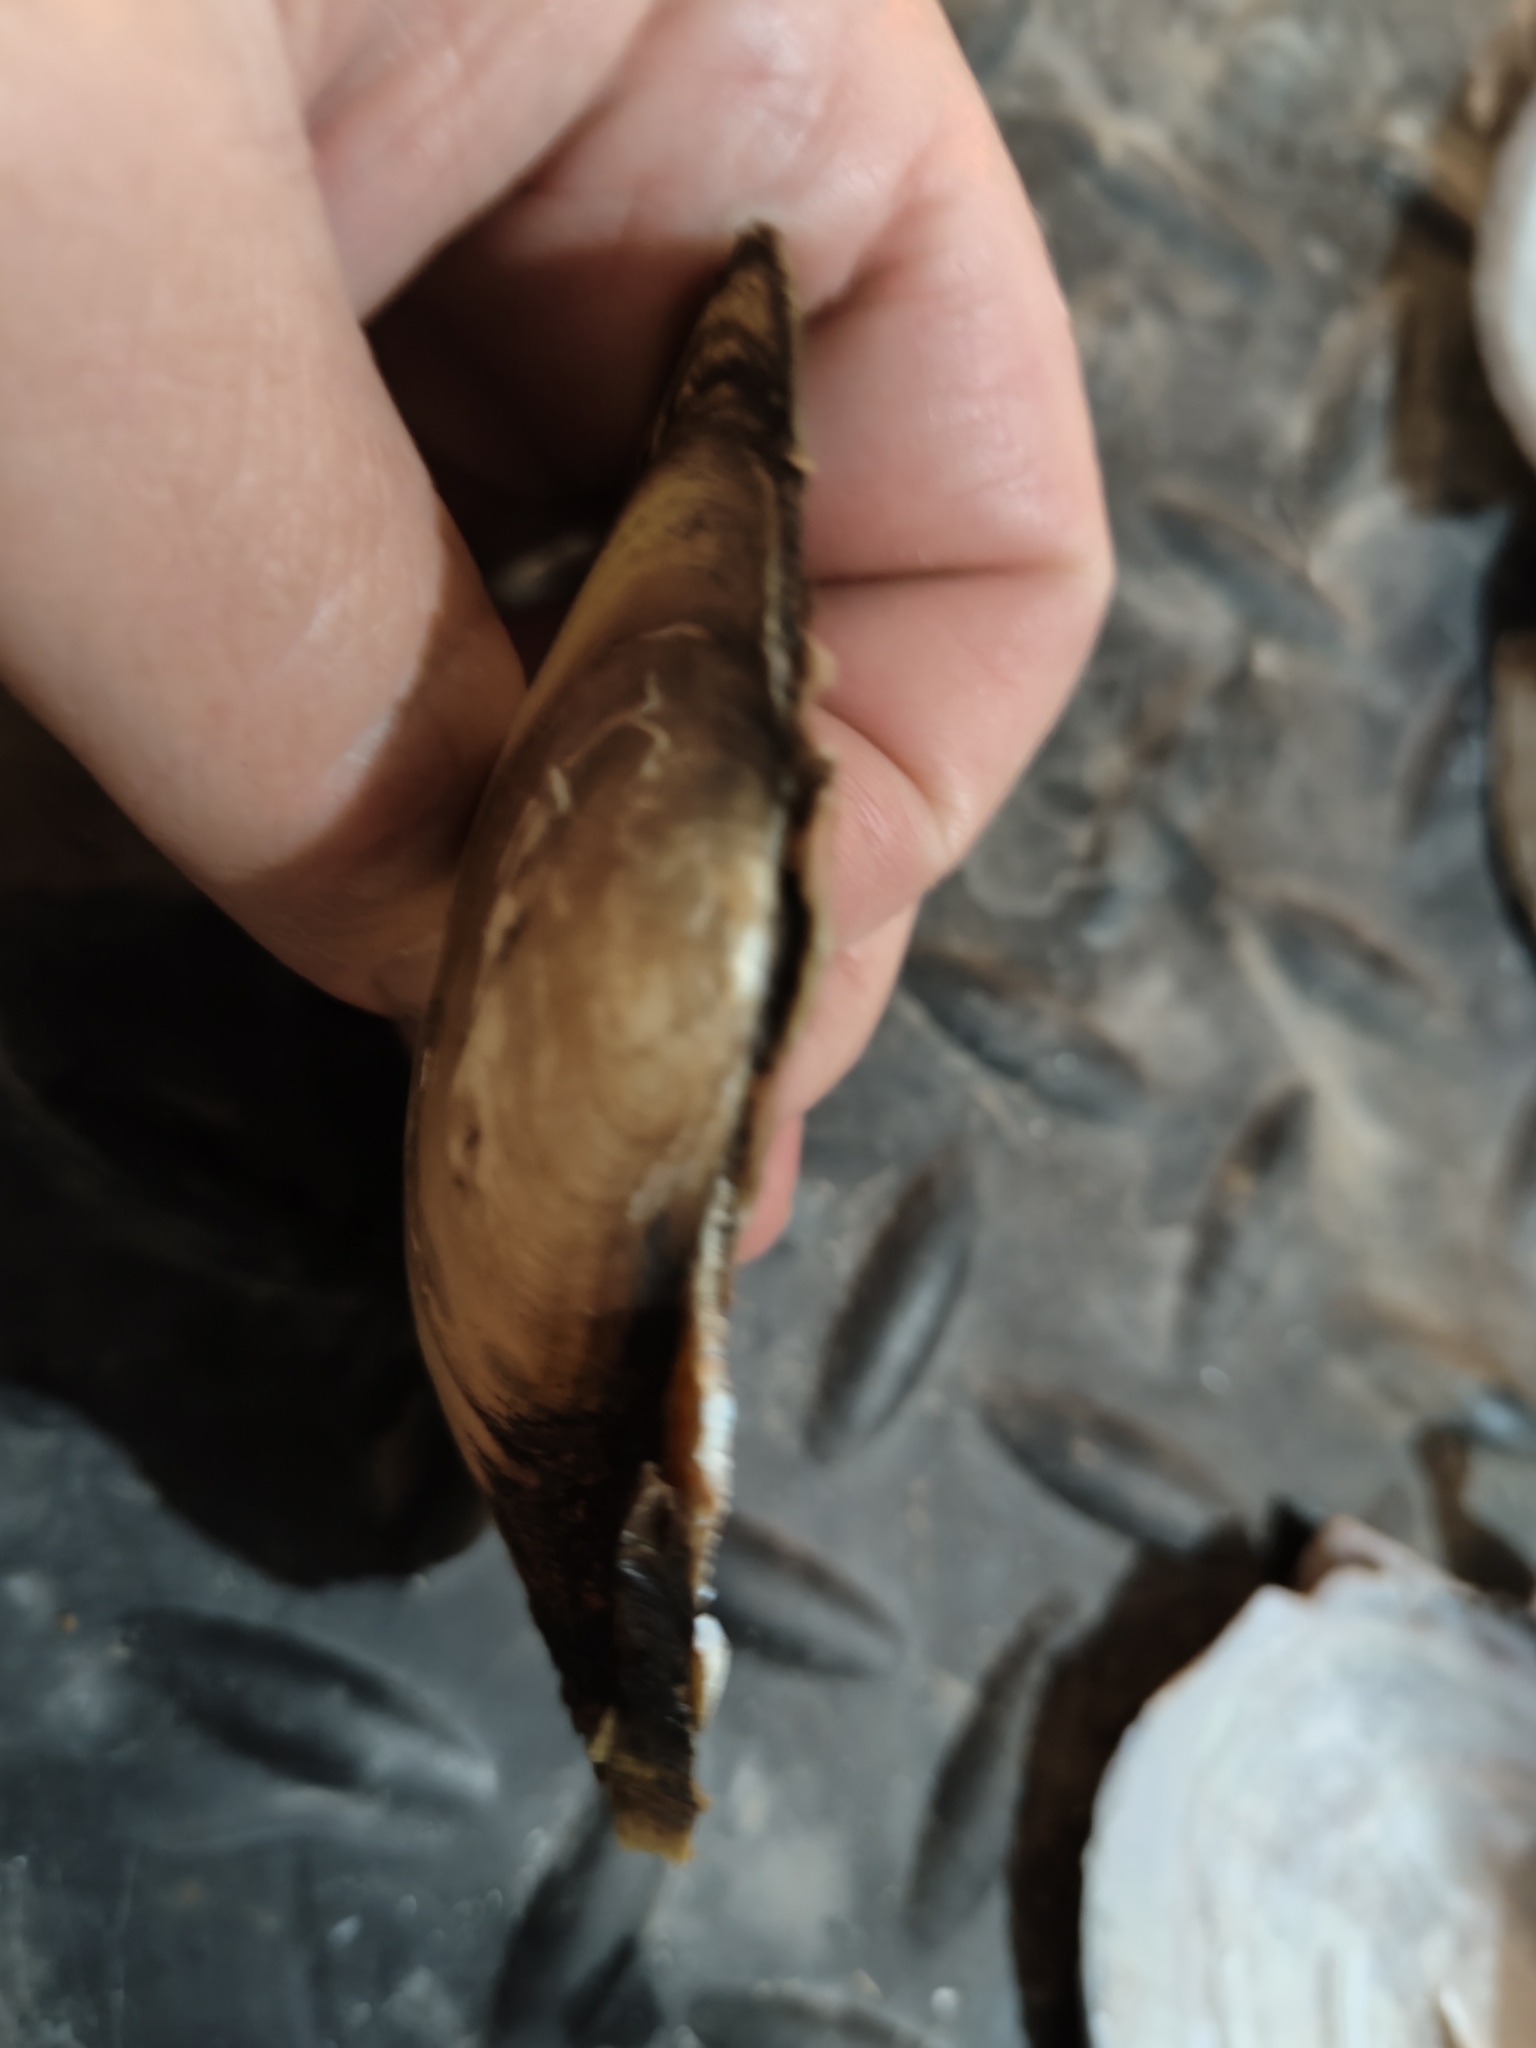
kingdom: Animalia
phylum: Mollusca
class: Bivalvia
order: Unionida
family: Unionidae
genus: Potamilus
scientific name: Potamilus fragilis
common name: Fragile papershell
